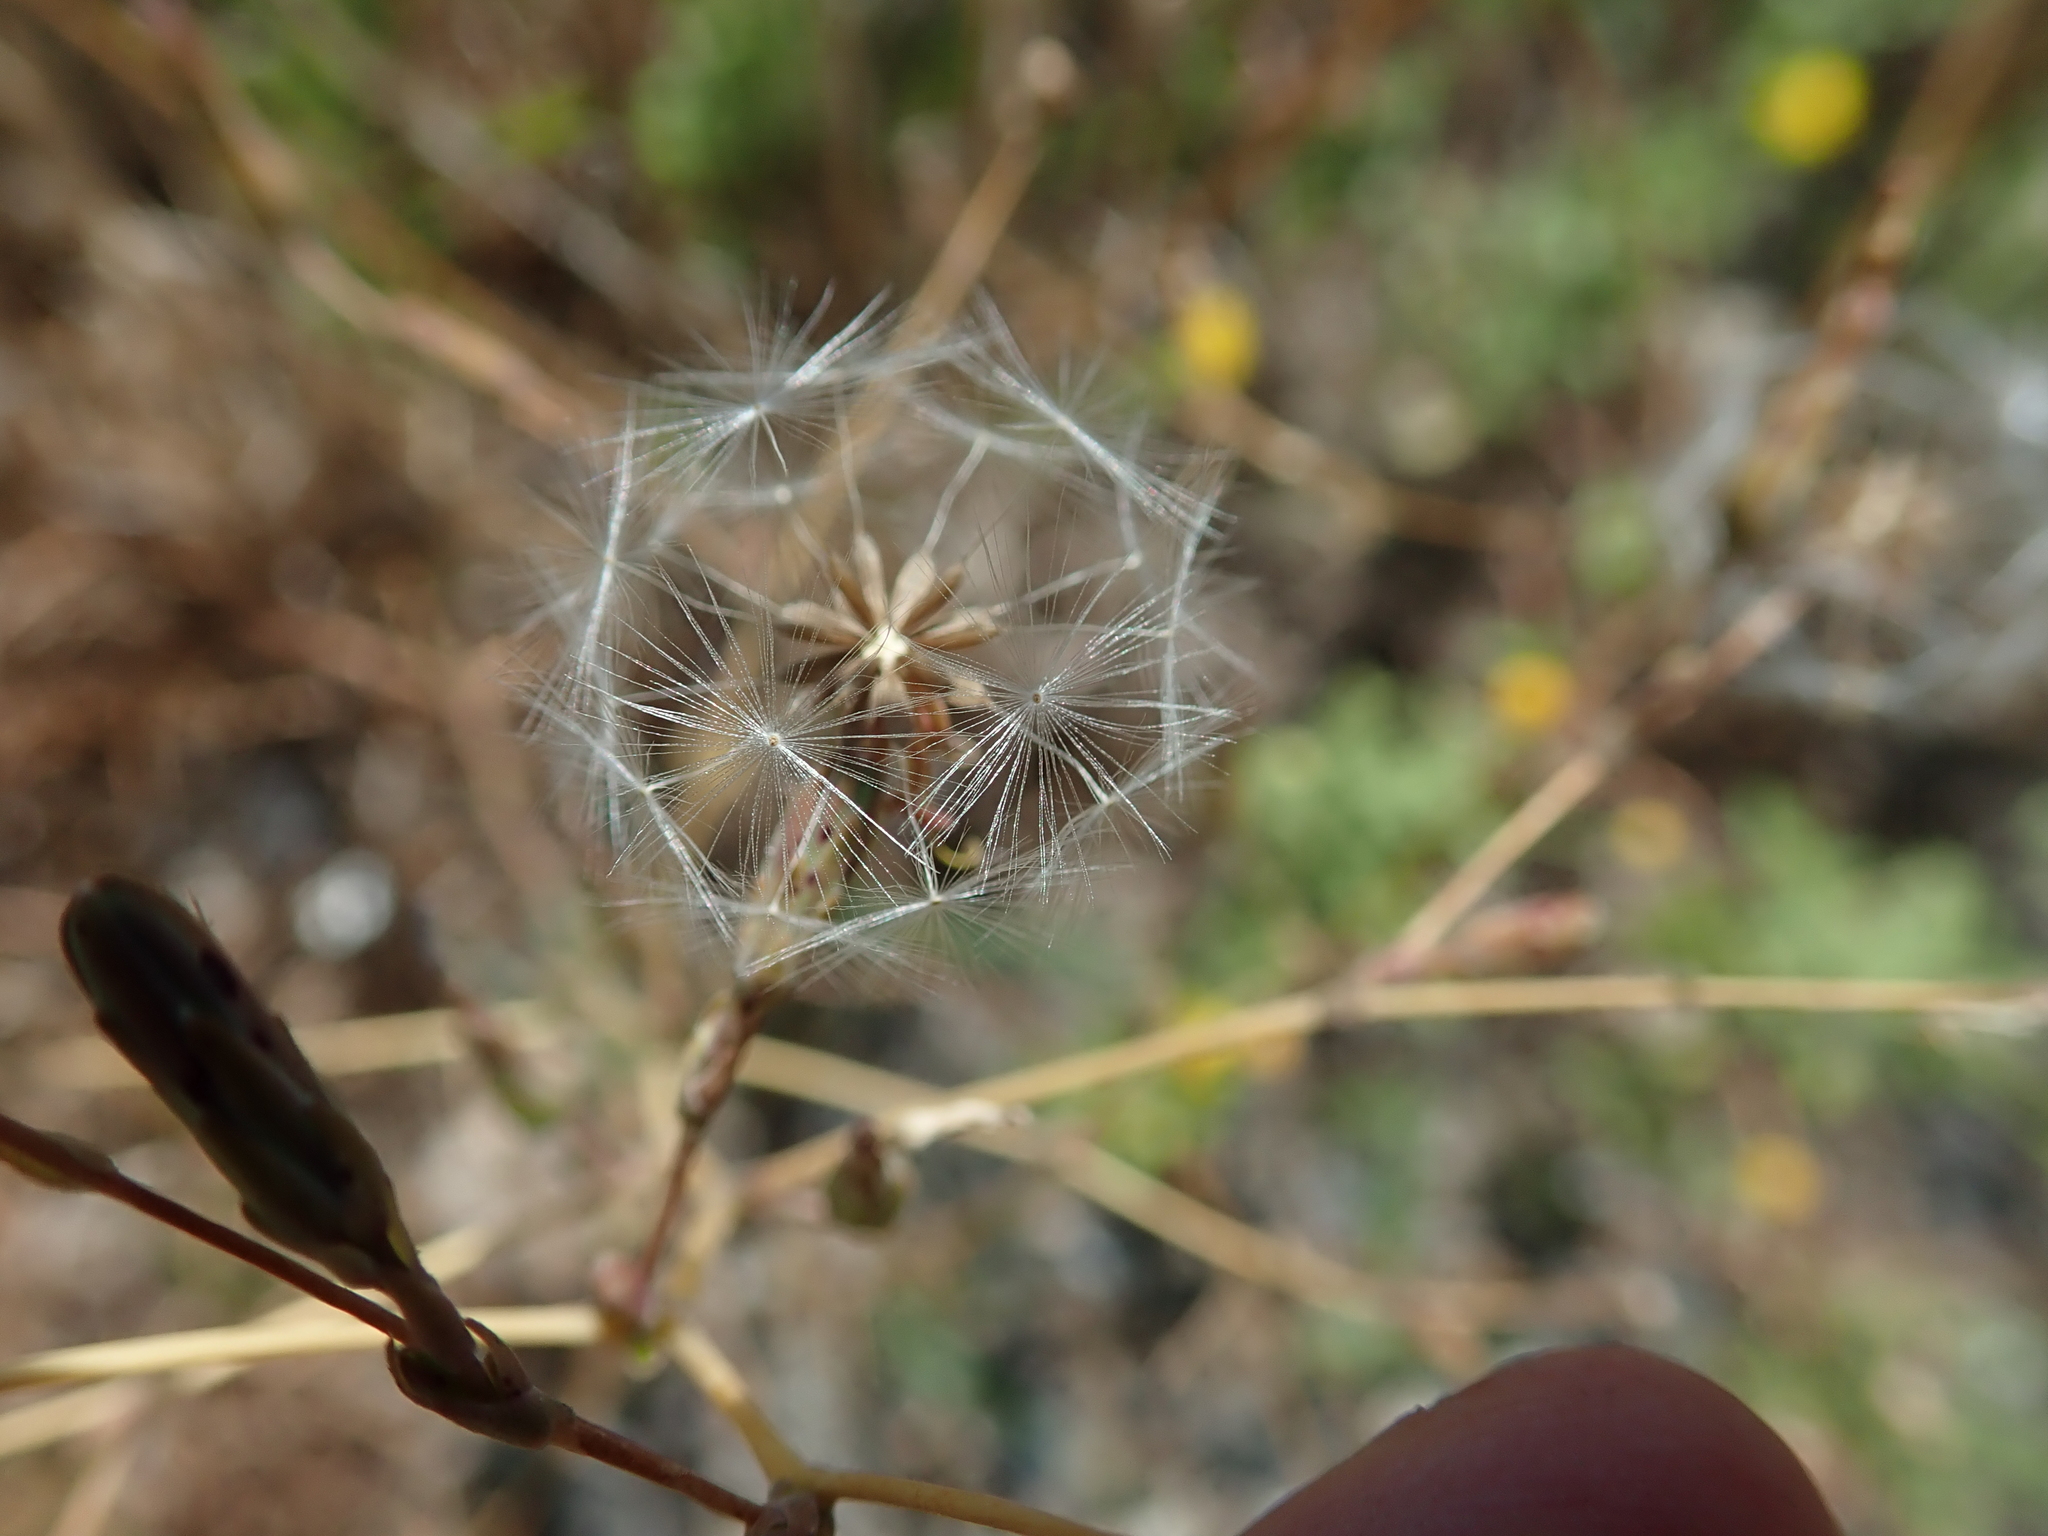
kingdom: Plantae
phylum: Tracheophyta
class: Magnoliopsida
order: Asterales
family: Asteraceae
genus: Lactuca
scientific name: Lactuca serriola
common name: Prickly lettuce
